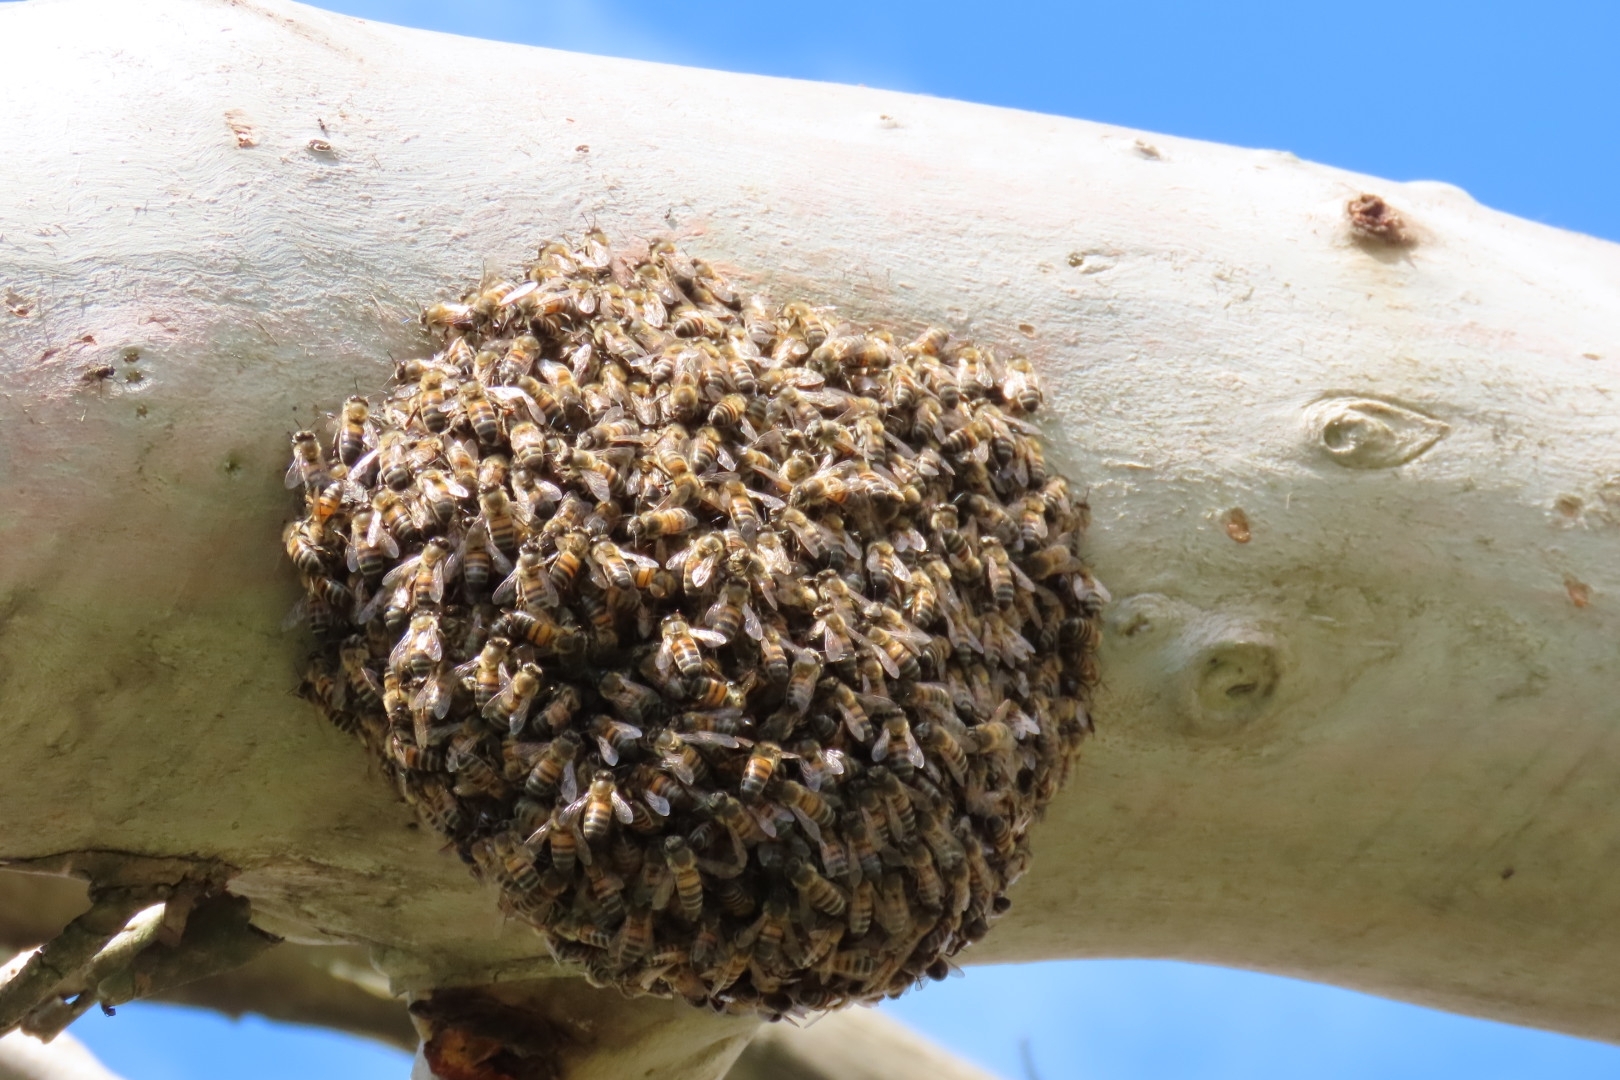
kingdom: Animalia
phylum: Arthropoda
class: Insecta
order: Hymenoptera
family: Apidae
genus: Apis
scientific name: Apis mellifera
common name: Honey bee
